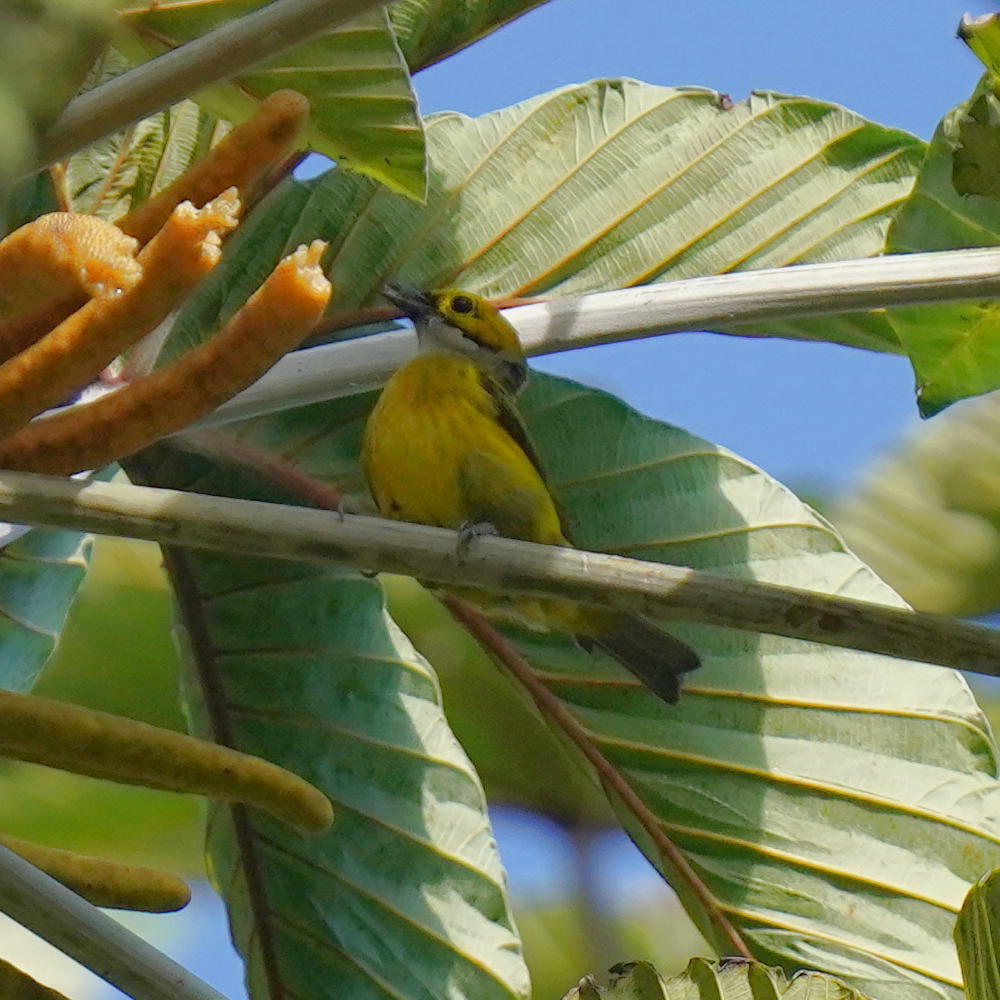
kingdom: Animalia
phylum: Chordata
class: Aves
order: Passeriformes
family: Thraupidae
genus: Tangara
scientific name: Tangara icterocephala
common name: Silver-throated tanager
